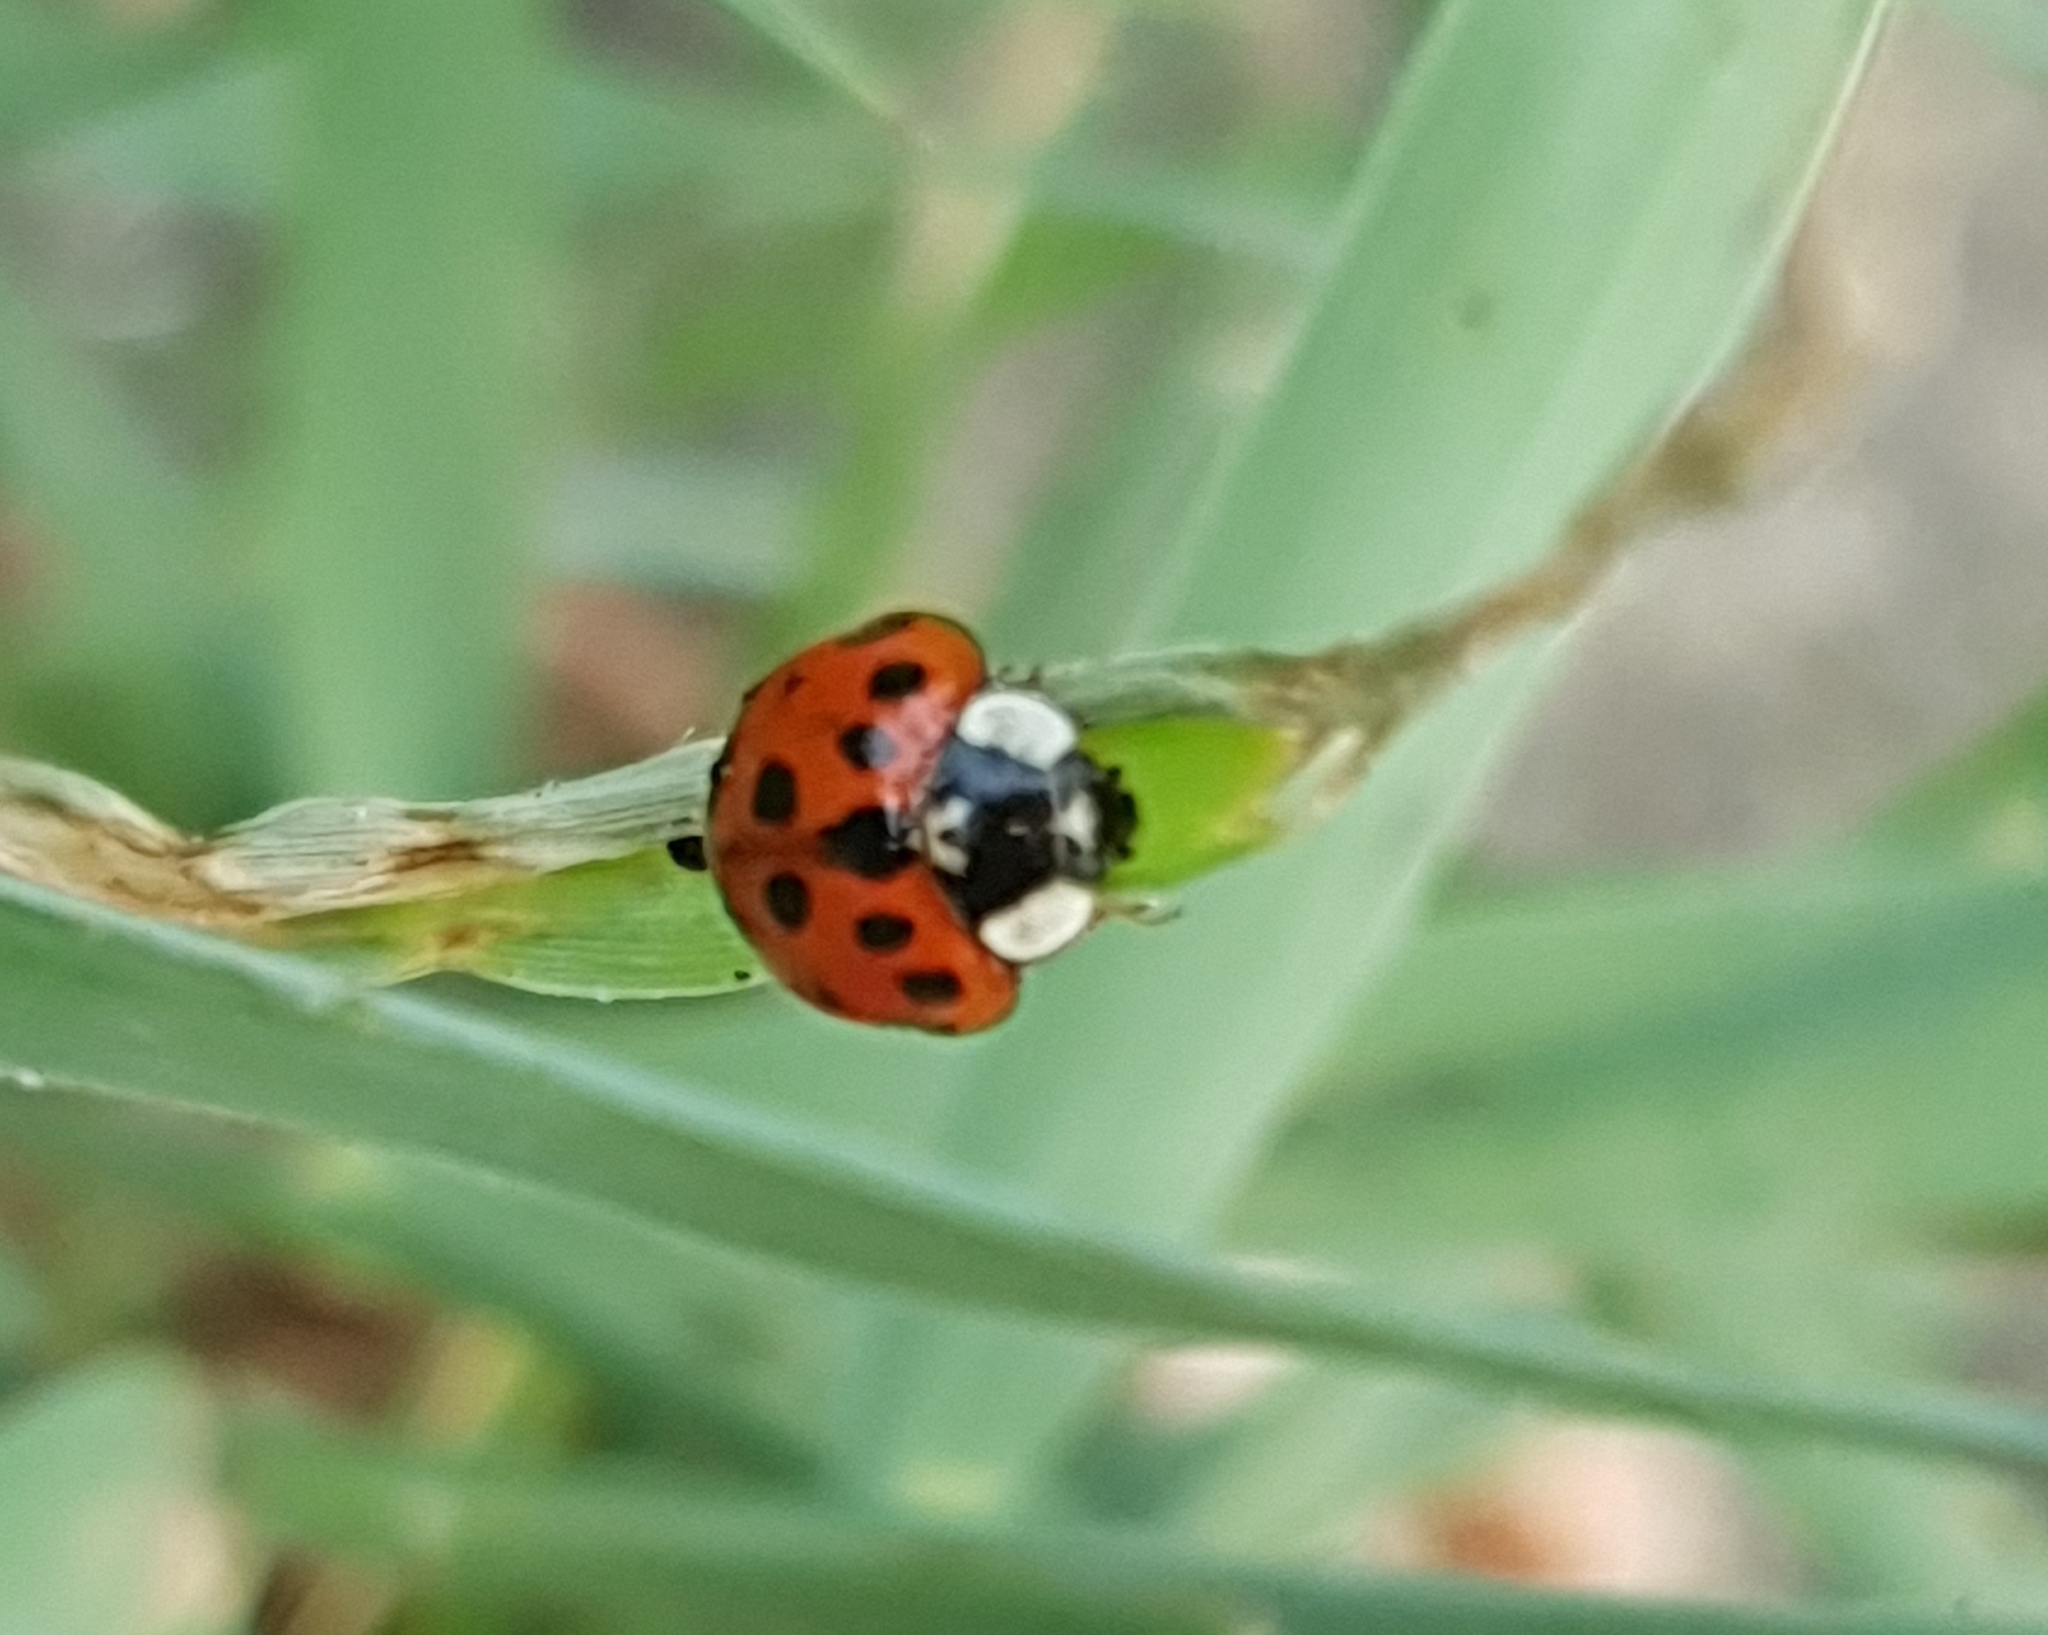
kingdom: Animalia
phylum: Arthropoda
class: Insecta
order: Coleoptera
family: Coccinellidae
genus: Harmonia
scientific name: Harmonia axyridis
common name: Harlequin ladybird
